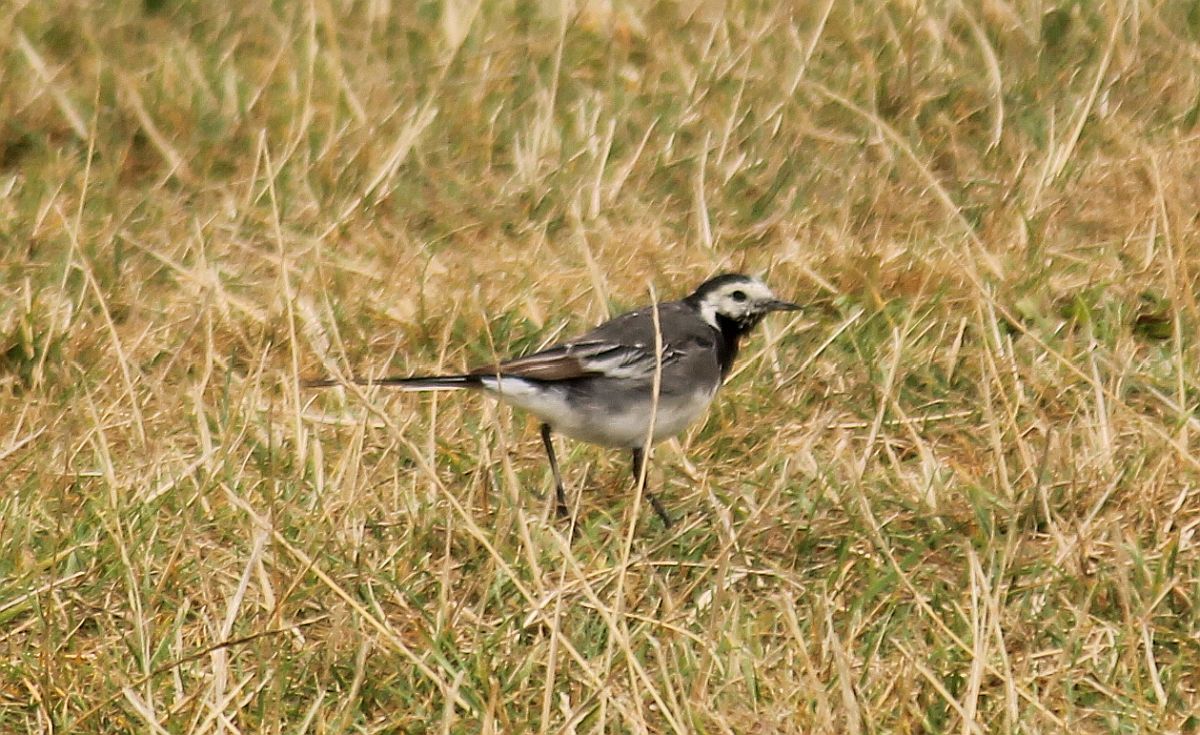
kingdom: Animalia
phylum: Chordata
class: Aves
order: Passeriformes
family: Motacillidae
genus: Motacilla
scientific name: Motacilla alba
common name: White wagtail
